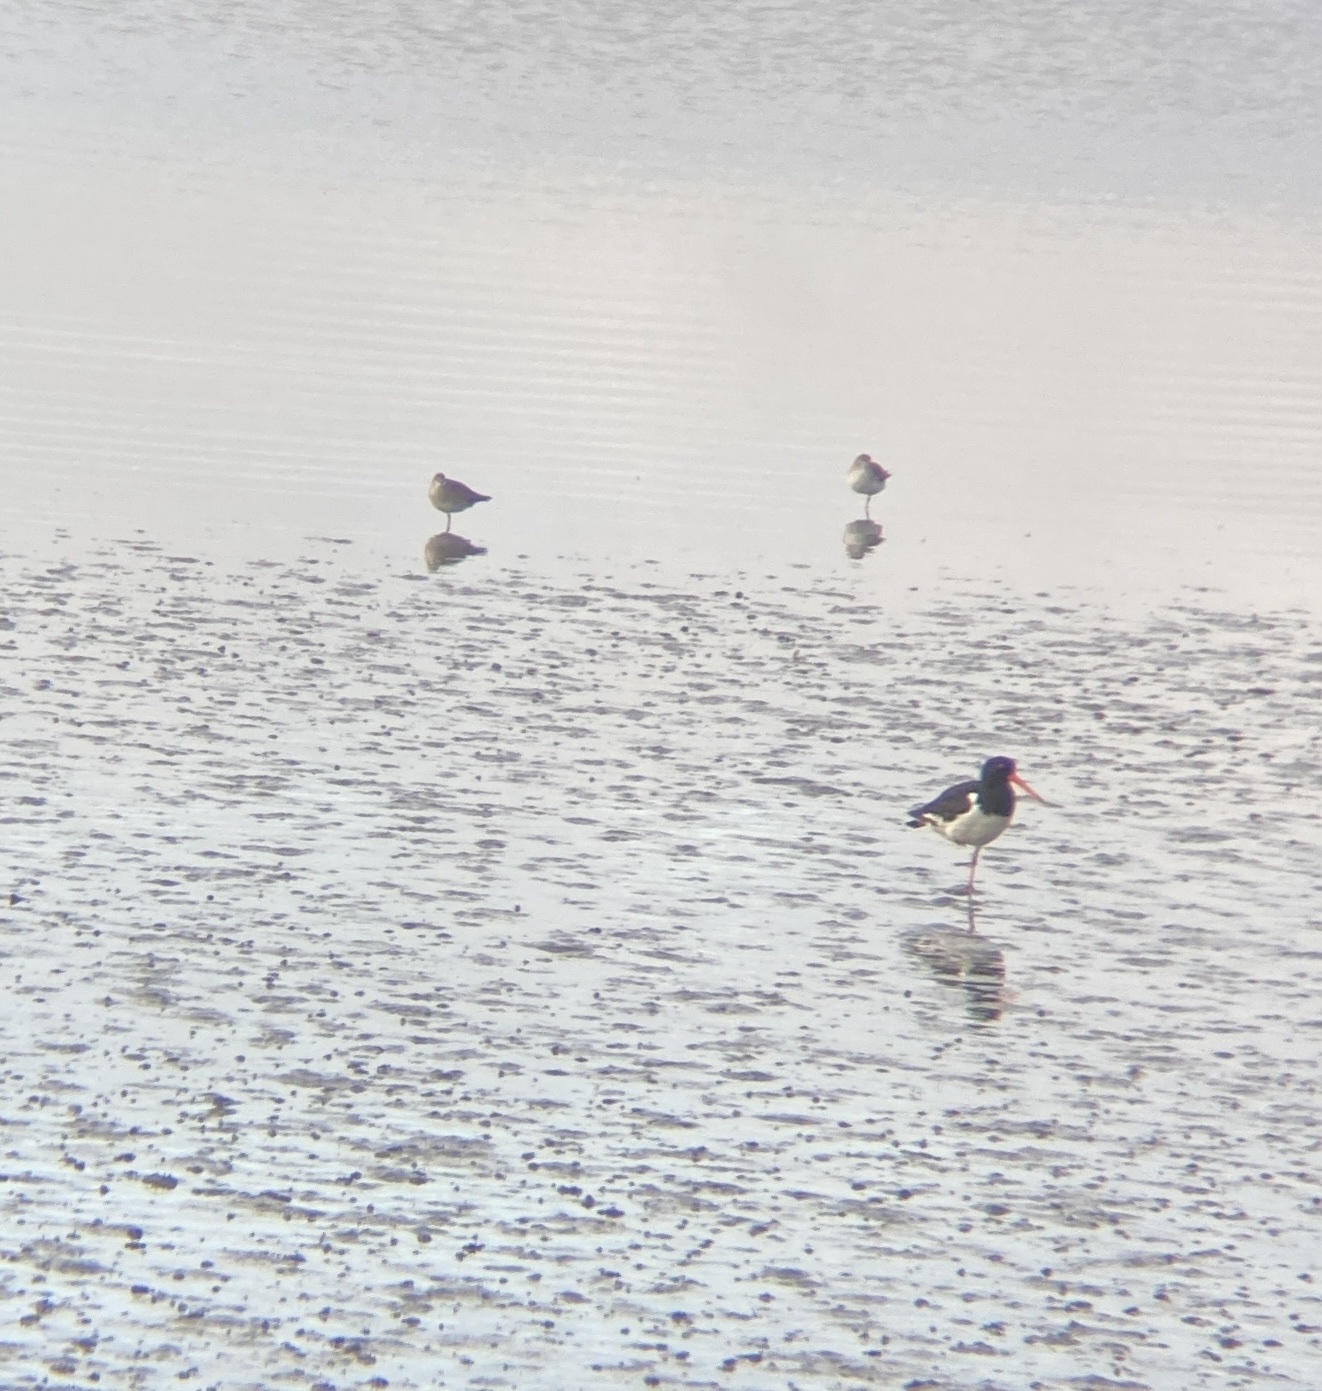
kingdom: Animalia
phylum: Chordata
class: Aves
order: Charadriiformes
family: Scolopacidae
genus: Tringa
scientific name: Tringa brevipes
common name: Grey-tailed tattler
